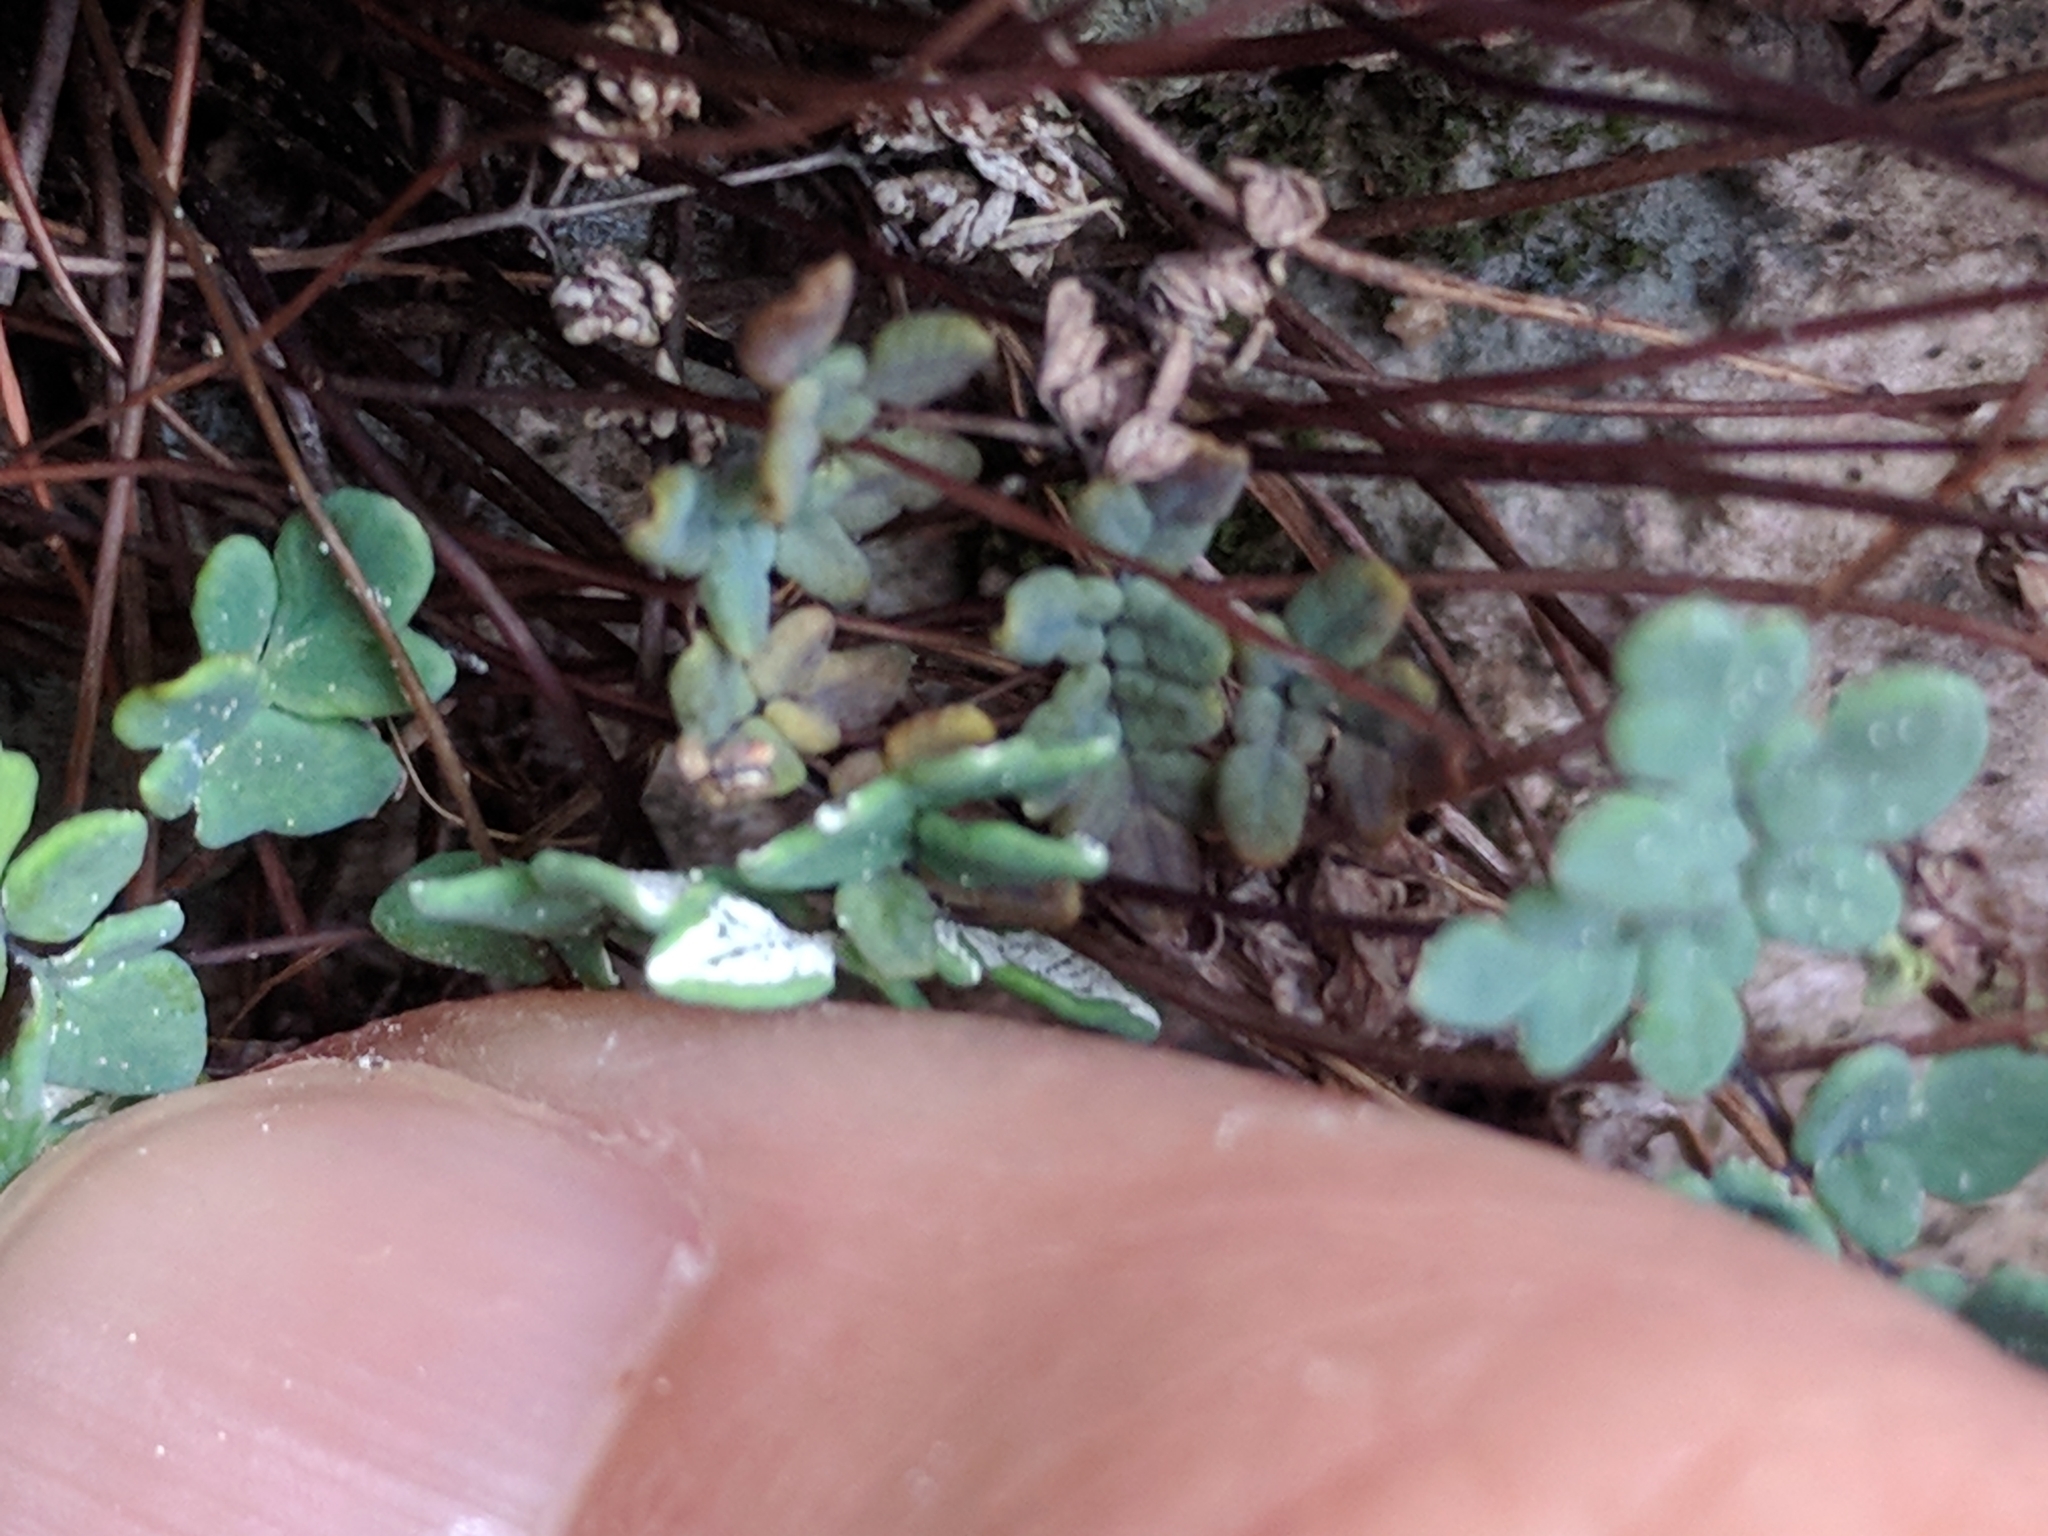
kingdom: Plantae
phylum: Tracheophyta
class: Polypodiopsida
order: Polypodiales
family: Pteridaceae
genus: Argyrochosma
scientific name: Argyrochosma dealbata
